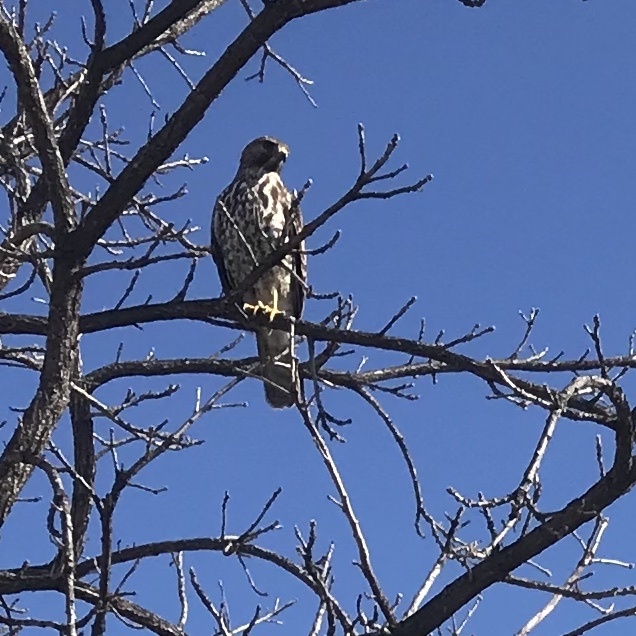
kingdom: Animalia
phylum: Chordata
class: Aves
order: Accipitriformes
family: Accipitridae
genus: Buteo
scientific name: Buteo lineatus
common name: Red-shouldered hawk
